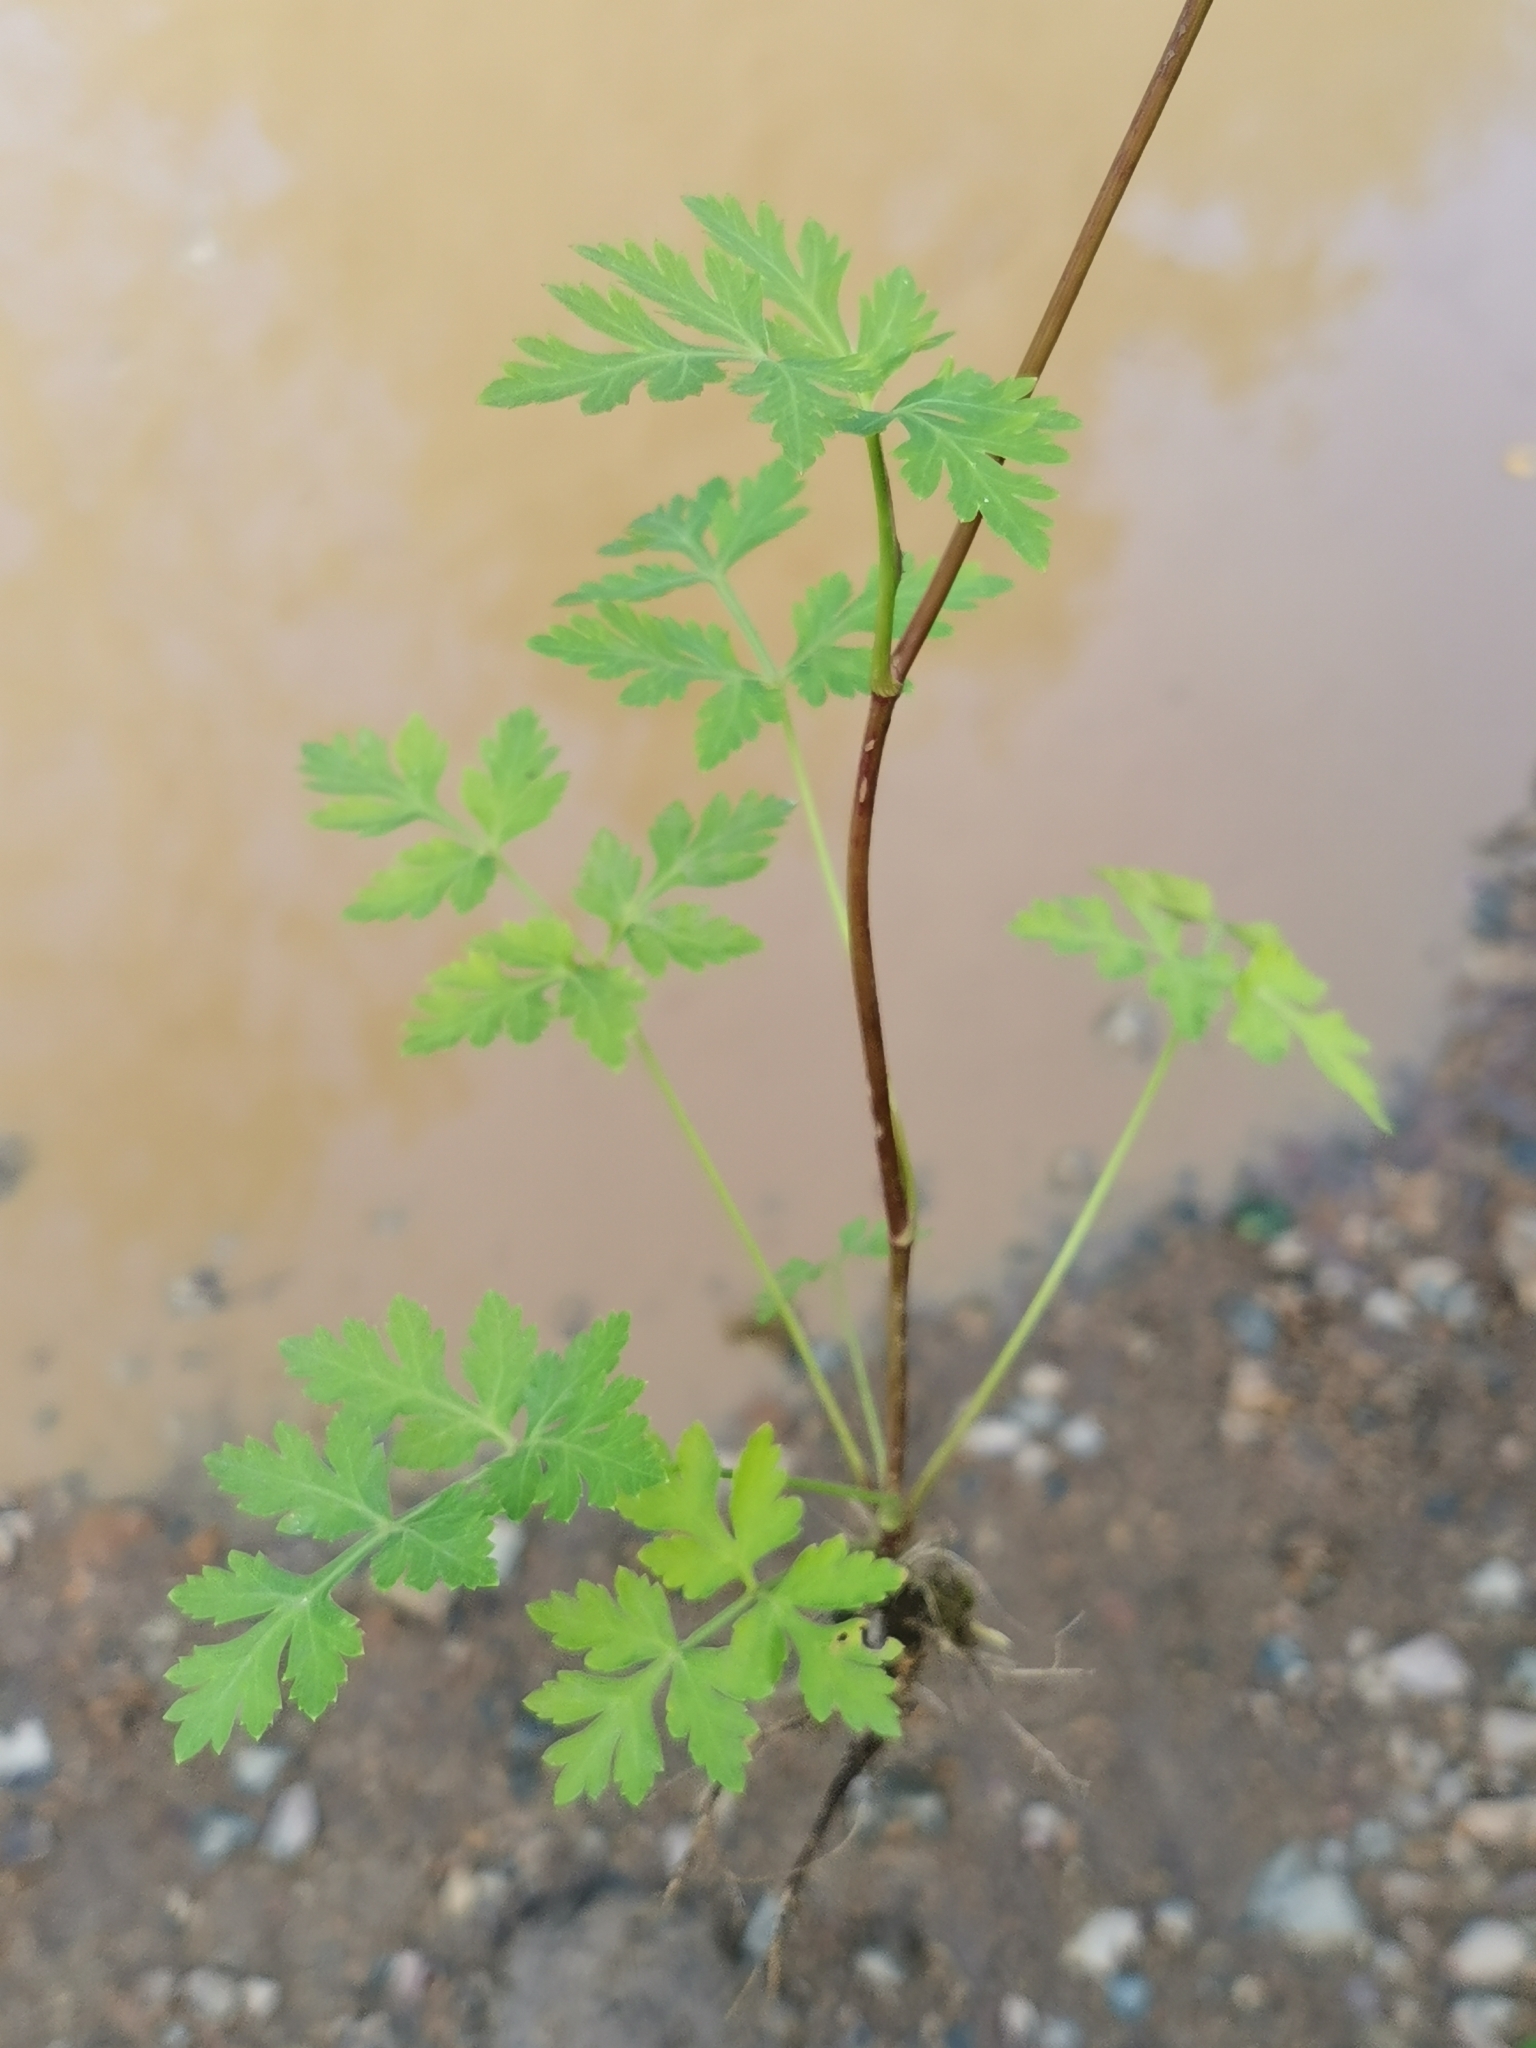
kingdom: Plantae
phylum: Tracheophyta
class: Magnoliopsida
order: Apiales
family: Apiaceae
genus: Kitagawia
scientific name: Kitagawia terebinthacea
